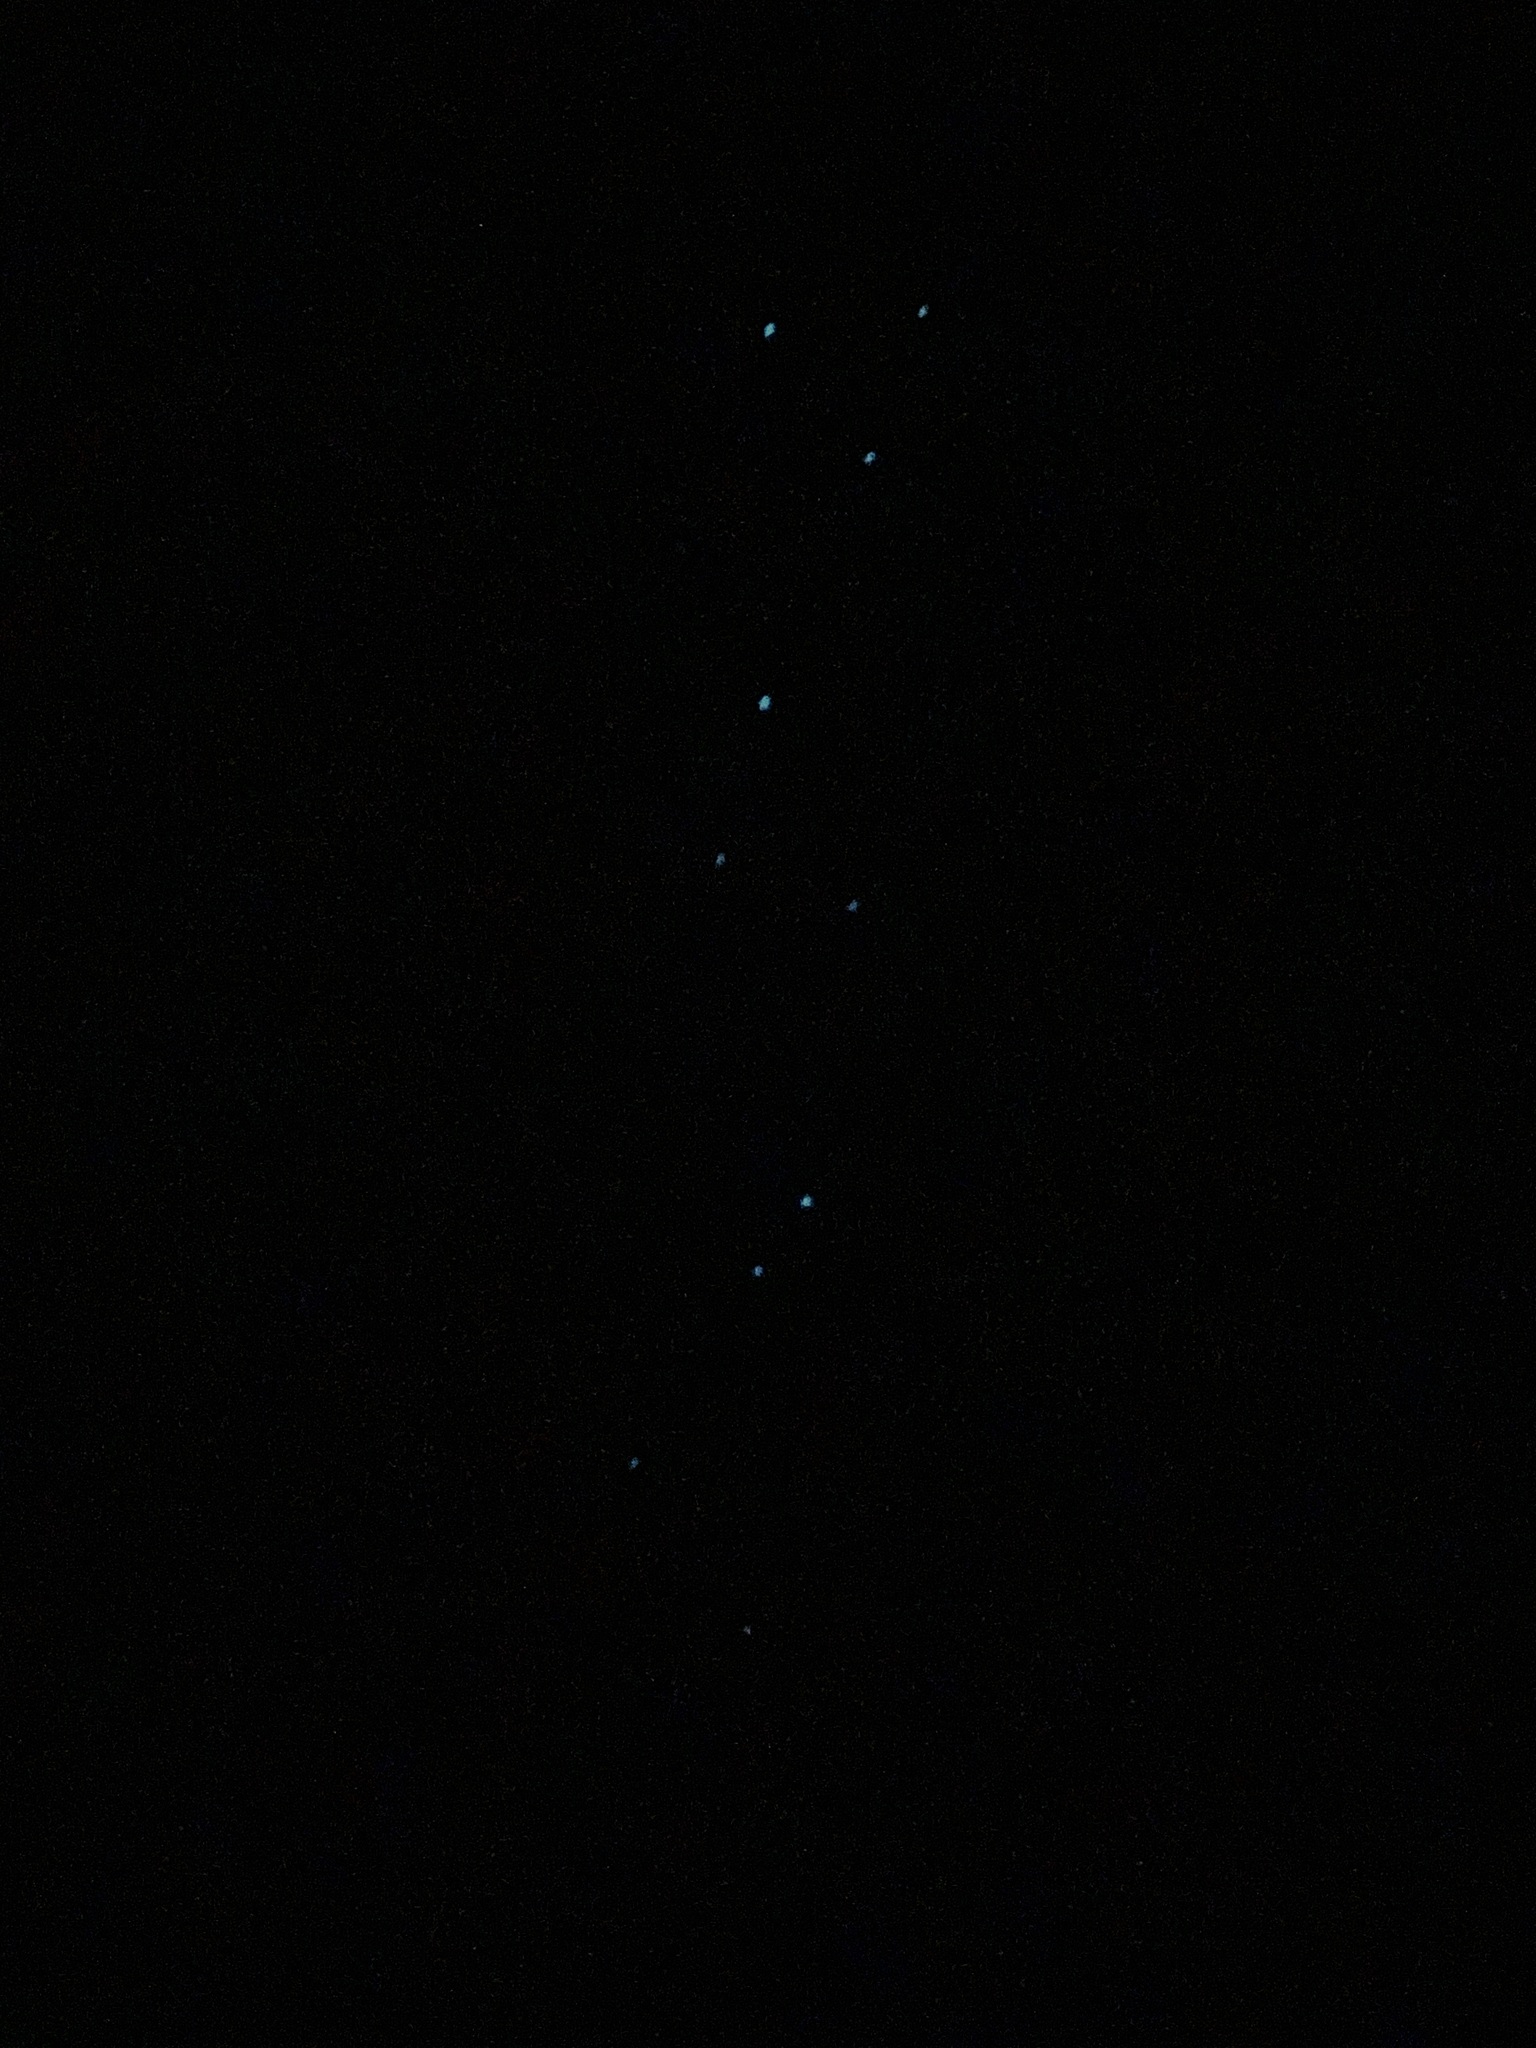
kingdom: Animalia
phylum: Arthropoda
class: Insecta
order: Diptera
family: Keroplatidae
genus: Arachnocampa
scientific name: Arachnocampa luminosa
